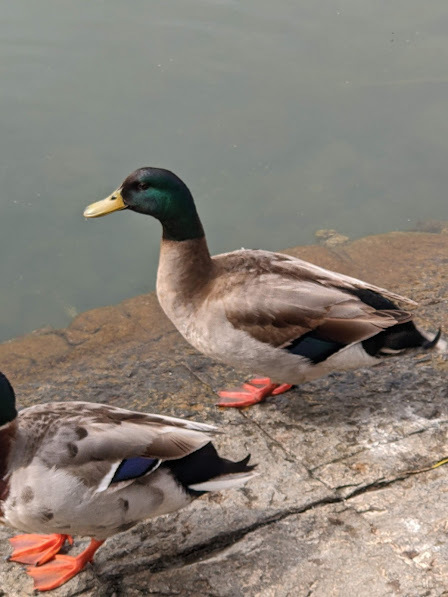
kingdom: Animalia
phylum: Chordata
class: Aves
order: Anseriformes
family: Anatidae
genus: Anas
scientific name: Anas platyrhynchos
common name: Mallard
